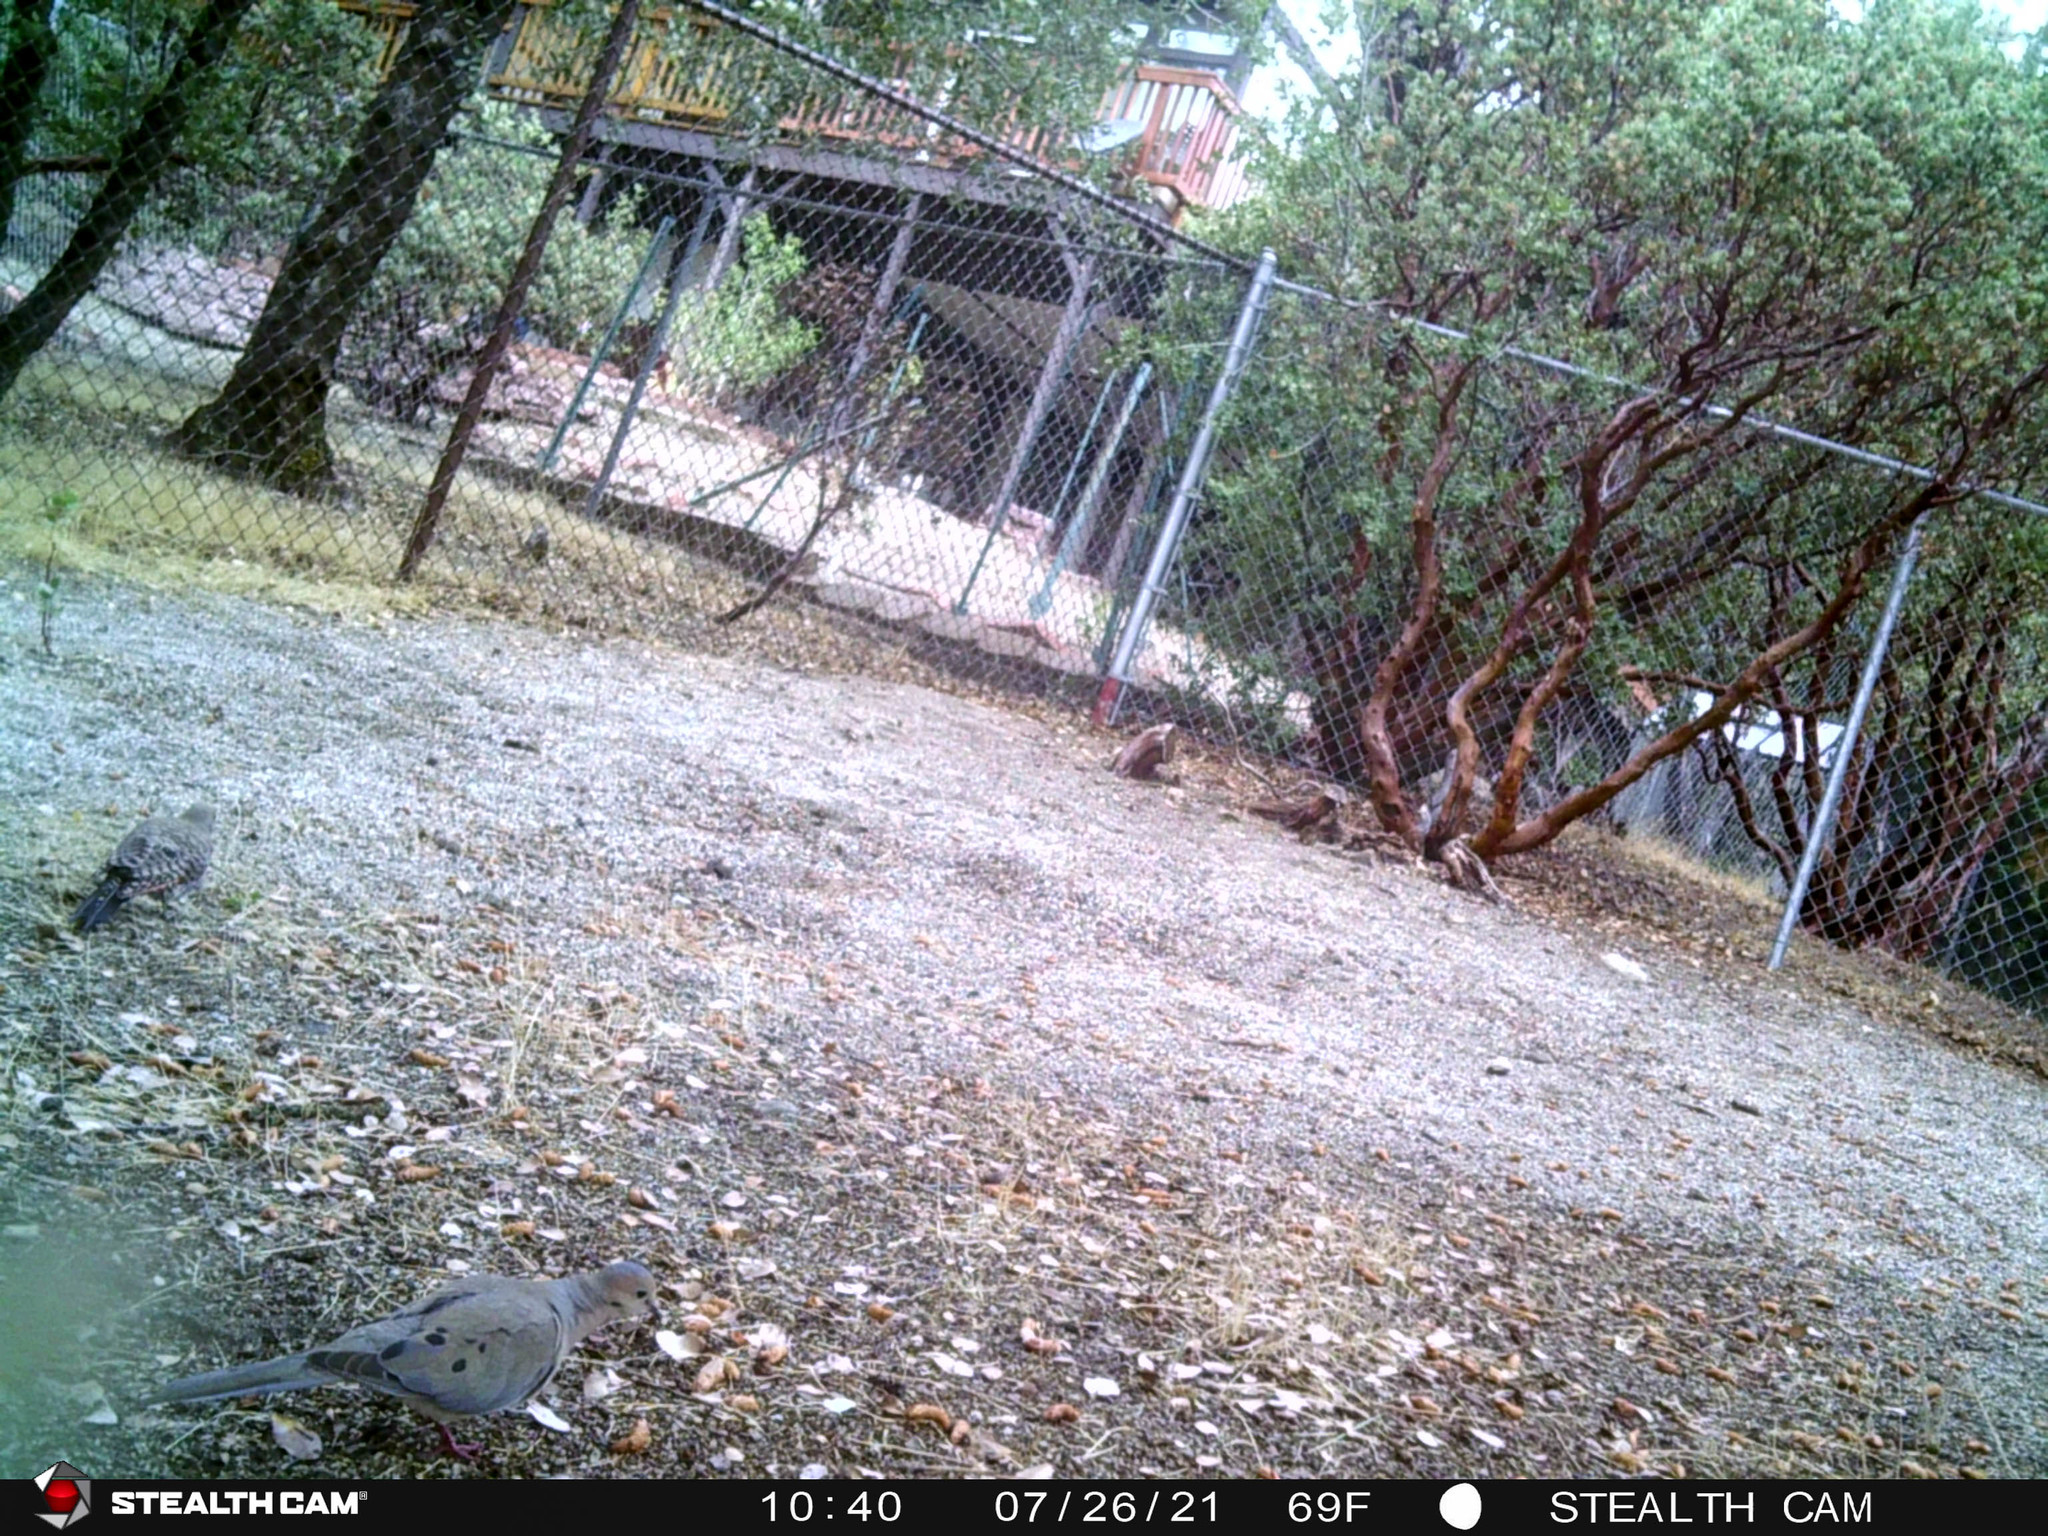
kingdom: Animalia
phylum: Chordata
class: Aves
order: Columbiformes
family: Columbidae
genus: Zenaida
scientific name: Zenaida macroura
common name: Mourning dove
